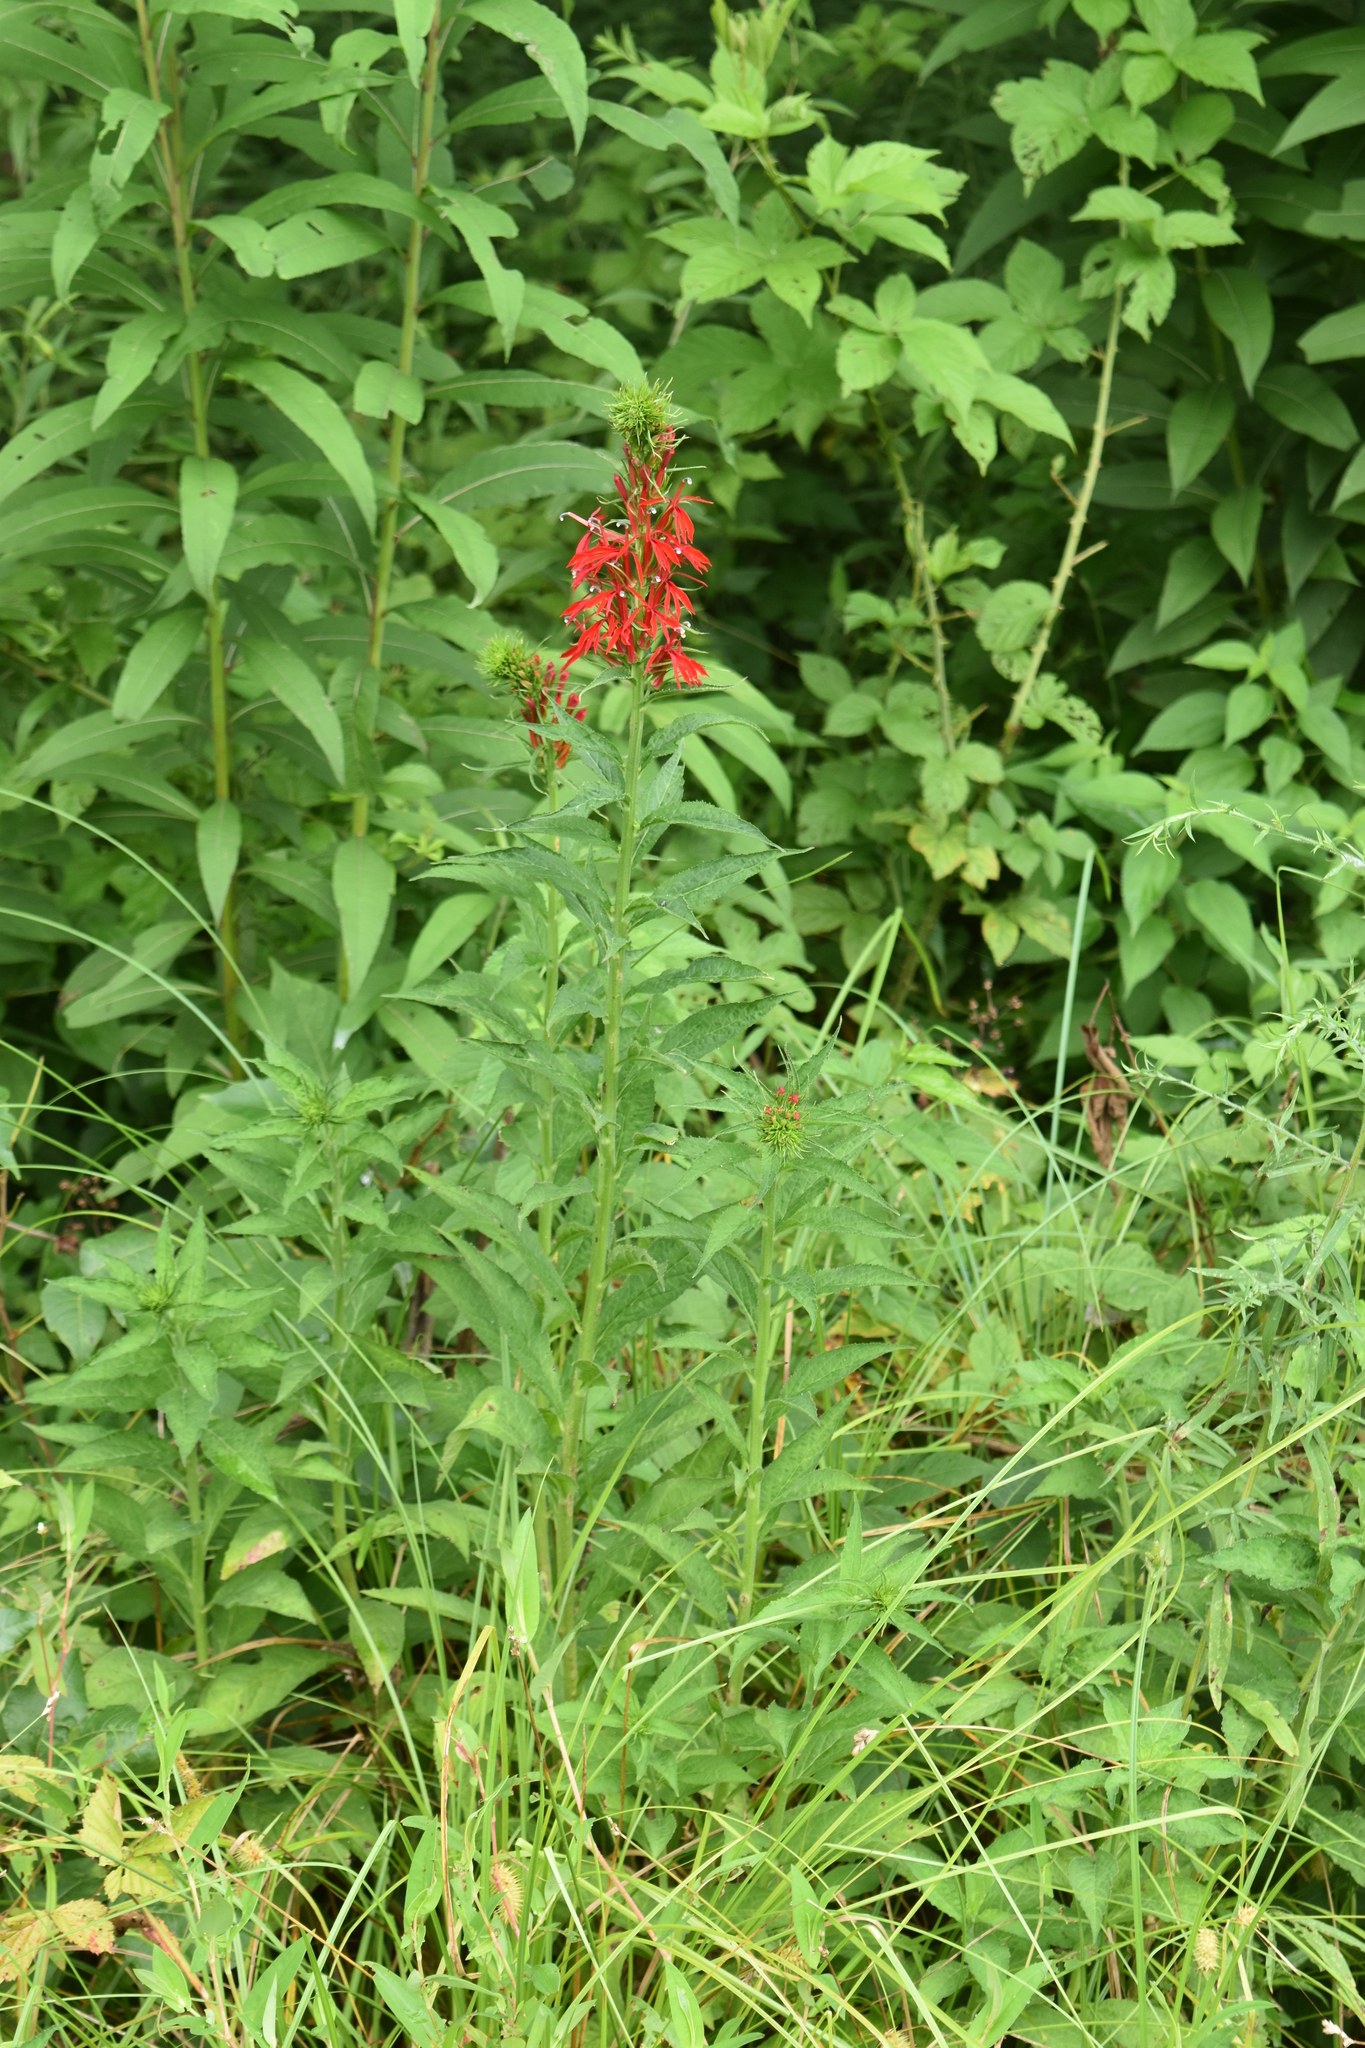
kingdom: Plantae
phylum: Tracheophyta
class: Magnoliopsida
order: Asterales
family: Campanulaceae
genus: Lobelia
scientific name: Lobelia cardinalis
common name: Cardinal flower
